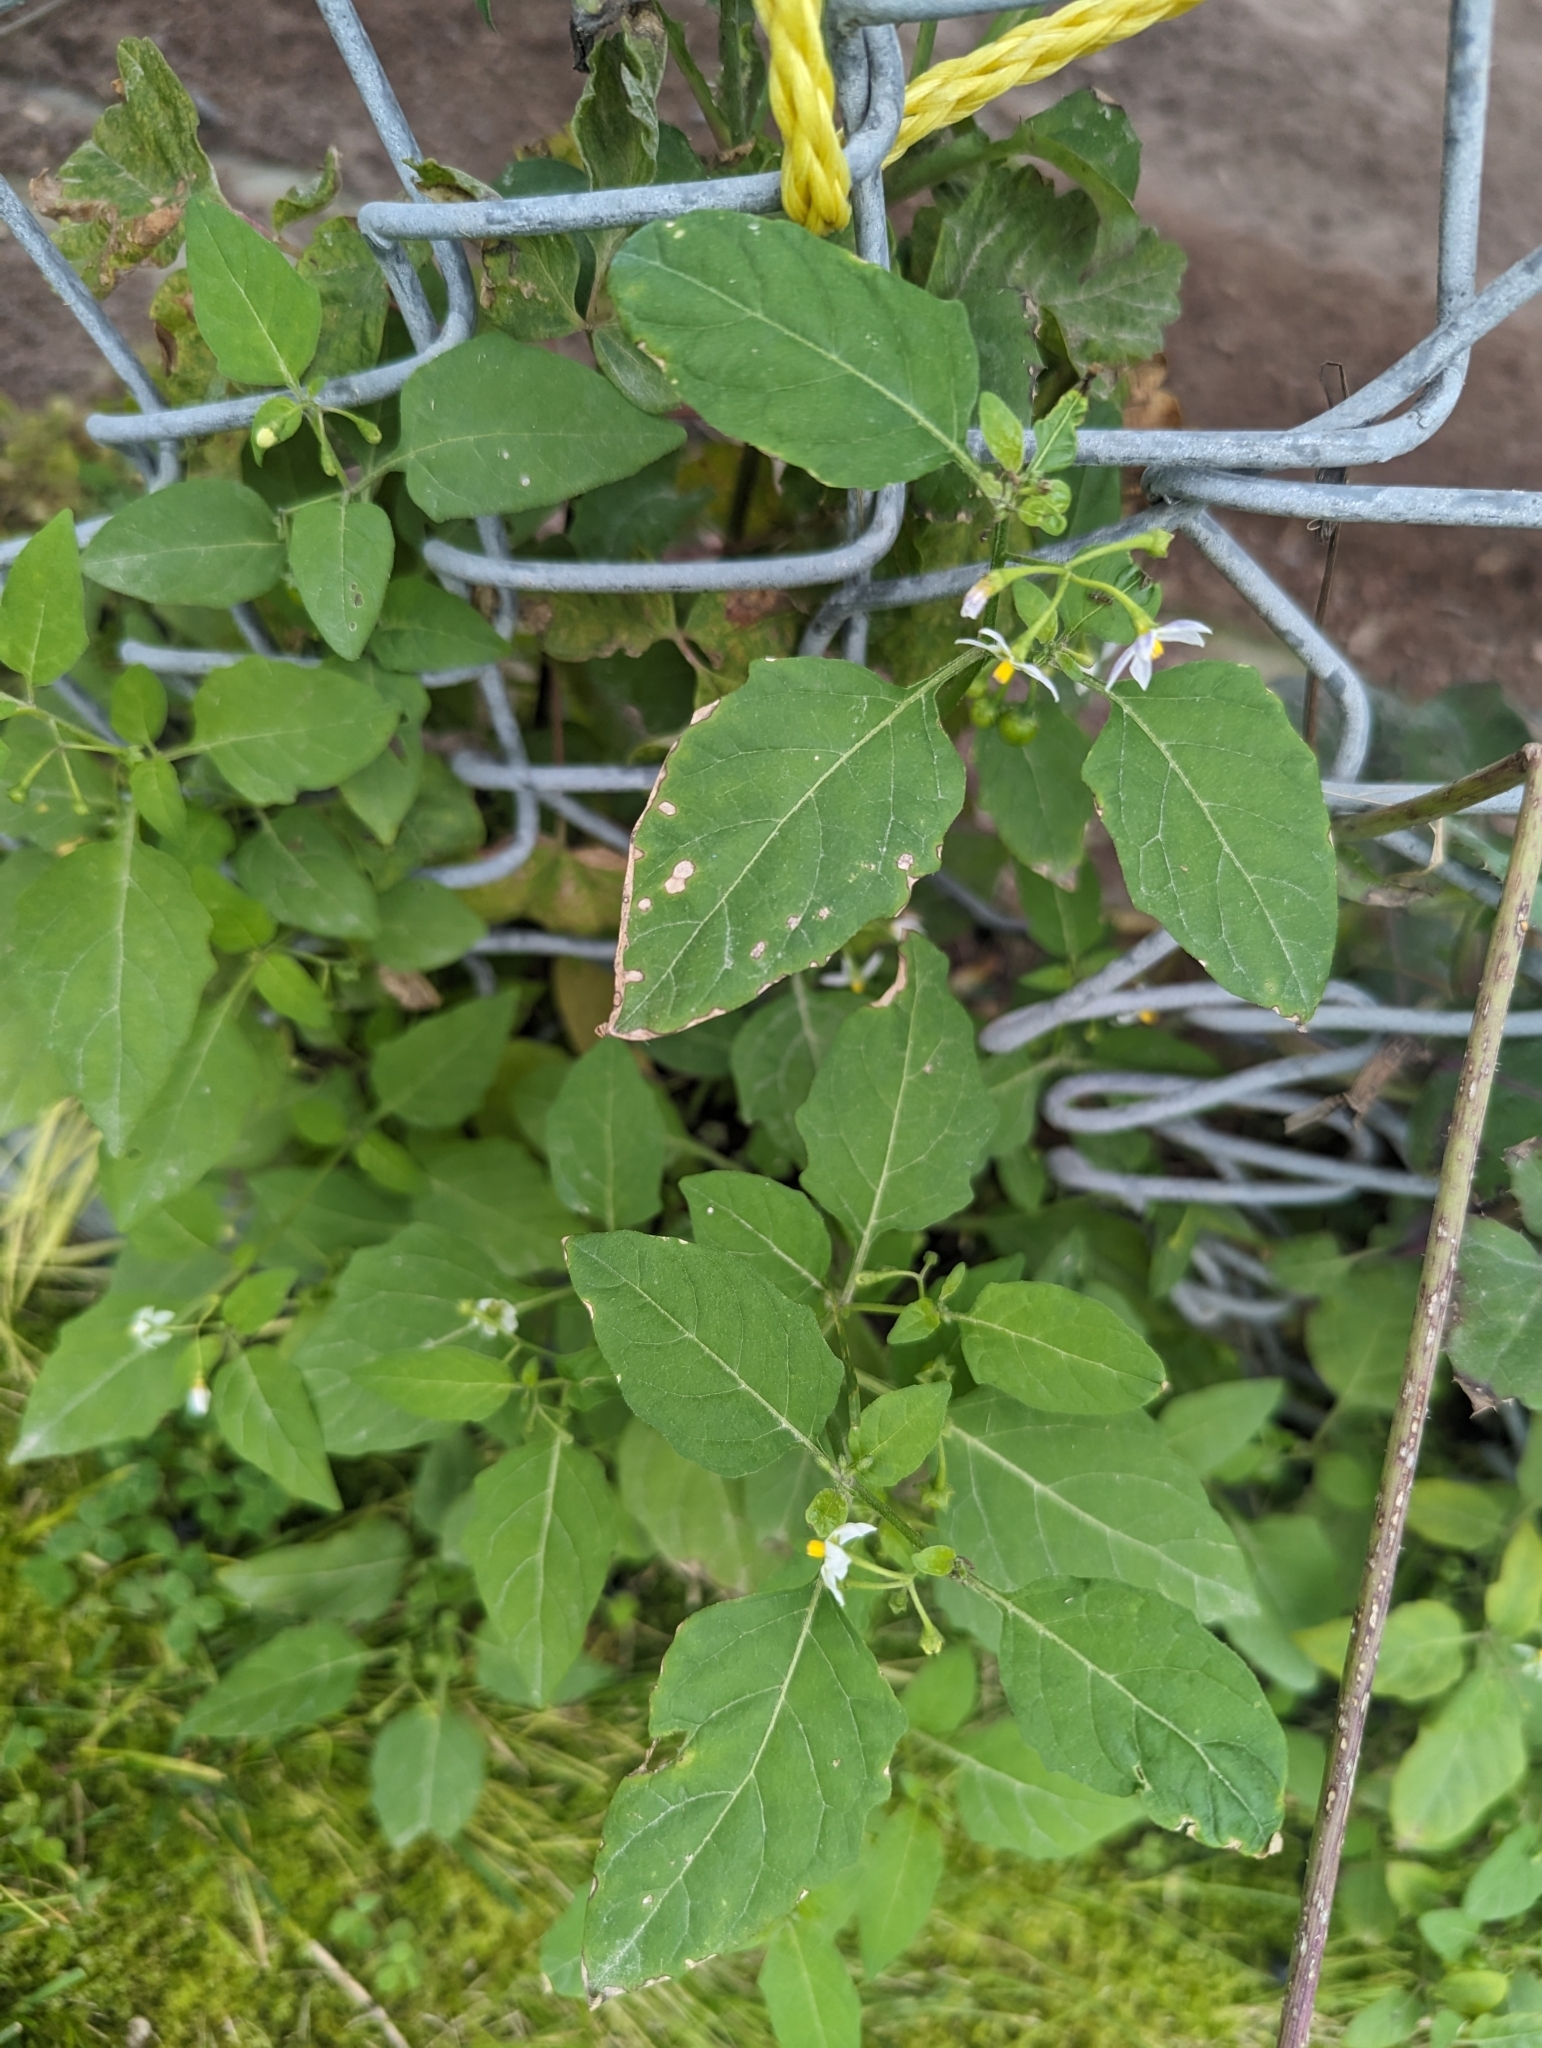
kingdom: Plantae
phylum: Tracheophyta
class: Magnoliopsida
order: Solanales
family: Solanaceae
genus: Solanum
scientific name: Solanum emulans
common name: Eastern black nightshade
